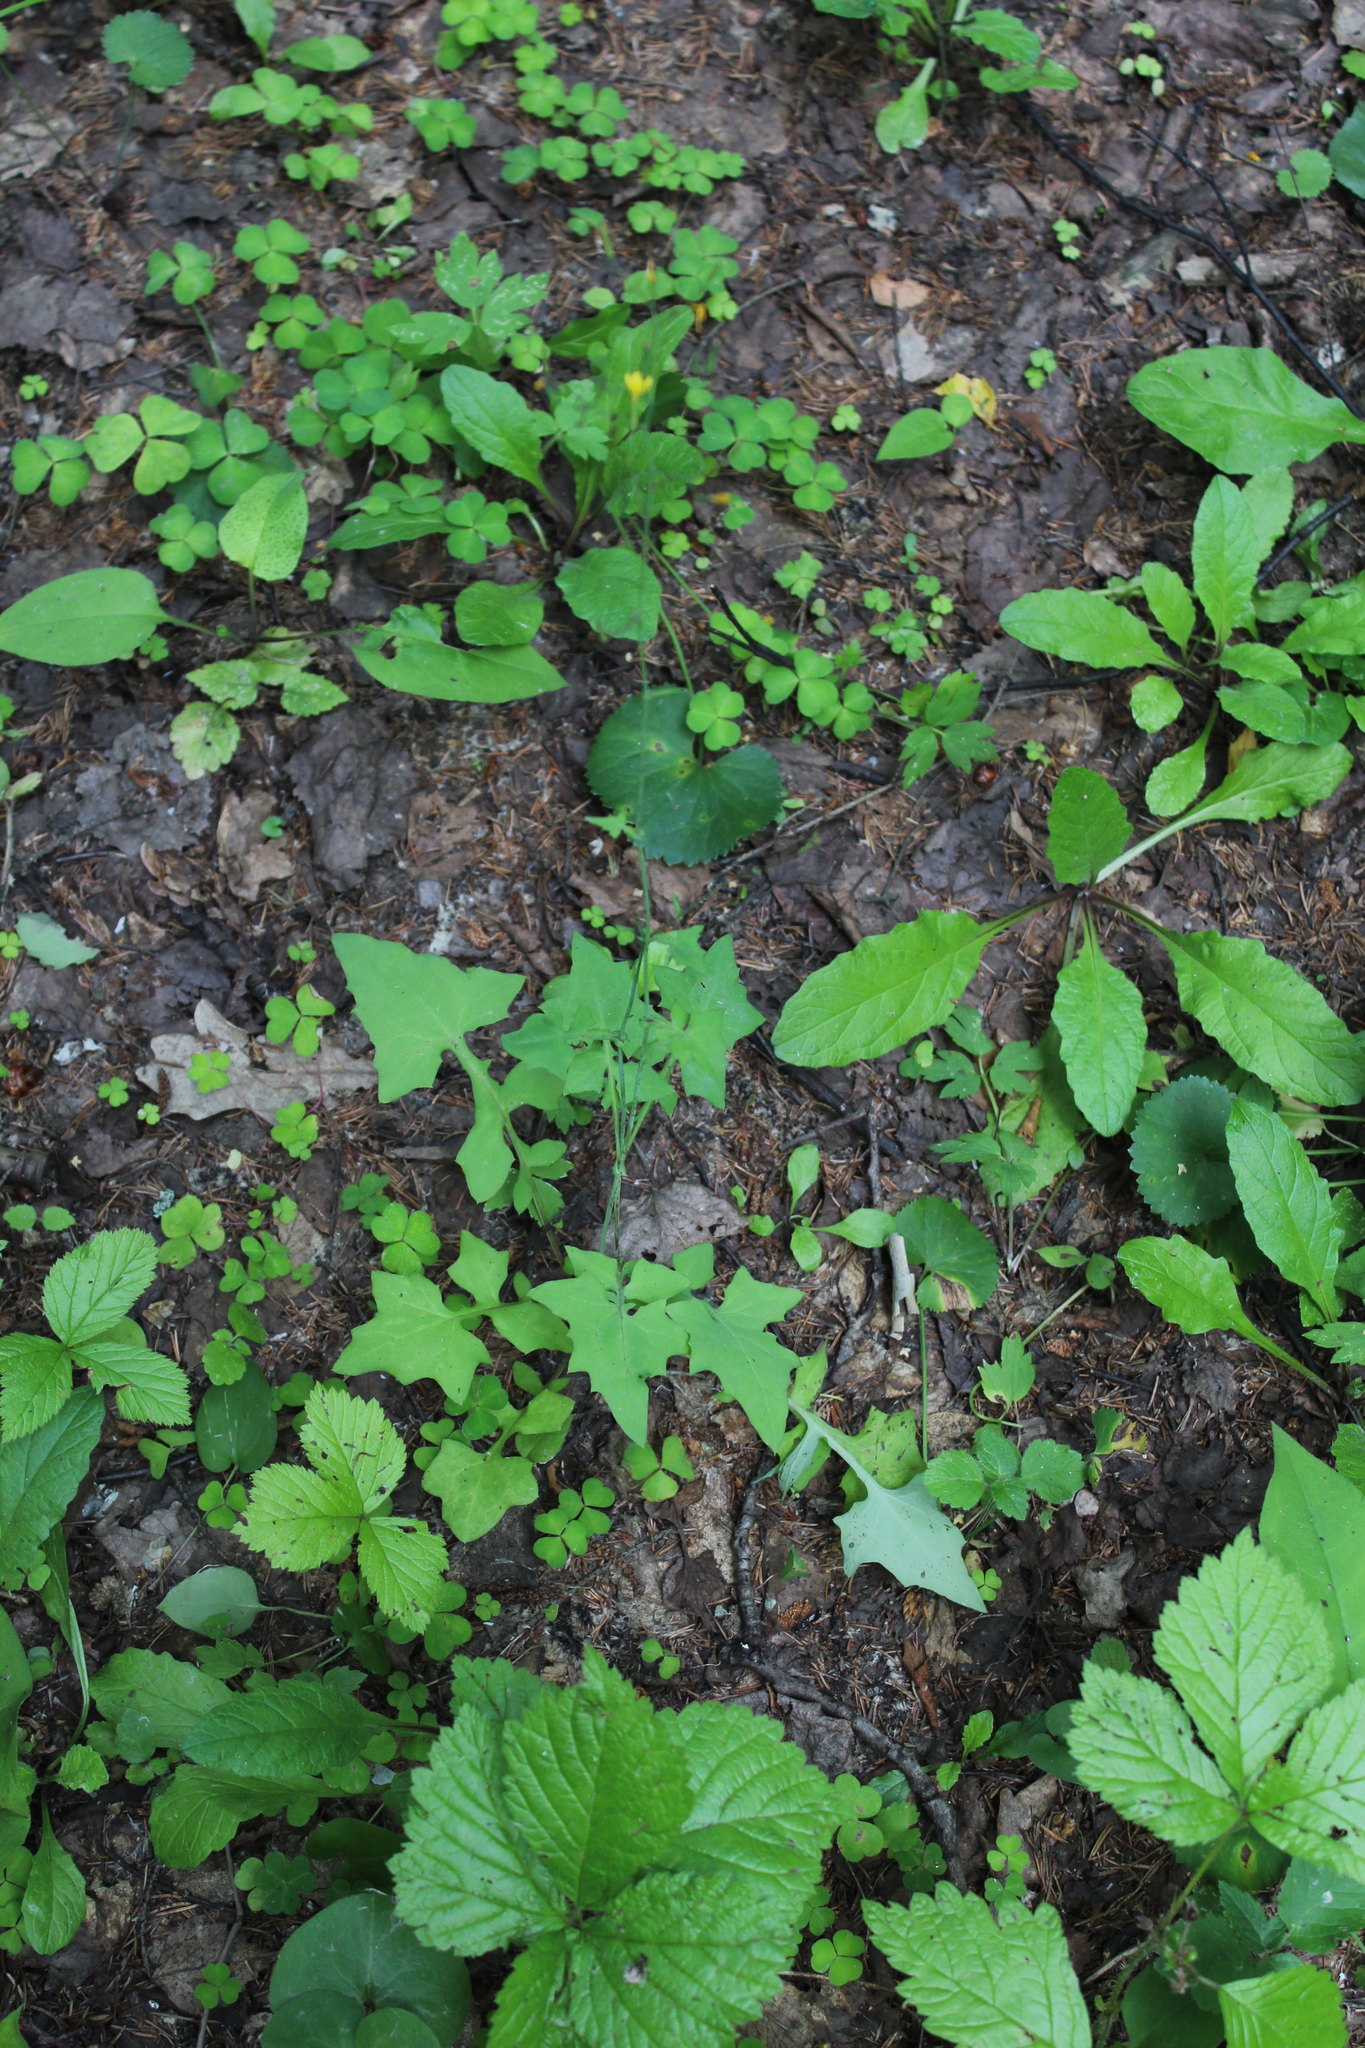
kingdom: Plantae
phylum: Tracheophyta
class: Magnoliopsida
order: Asterales
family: Asteraceae
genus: Mycelis
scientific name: Mycelis muralis
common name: Wall lettuce
